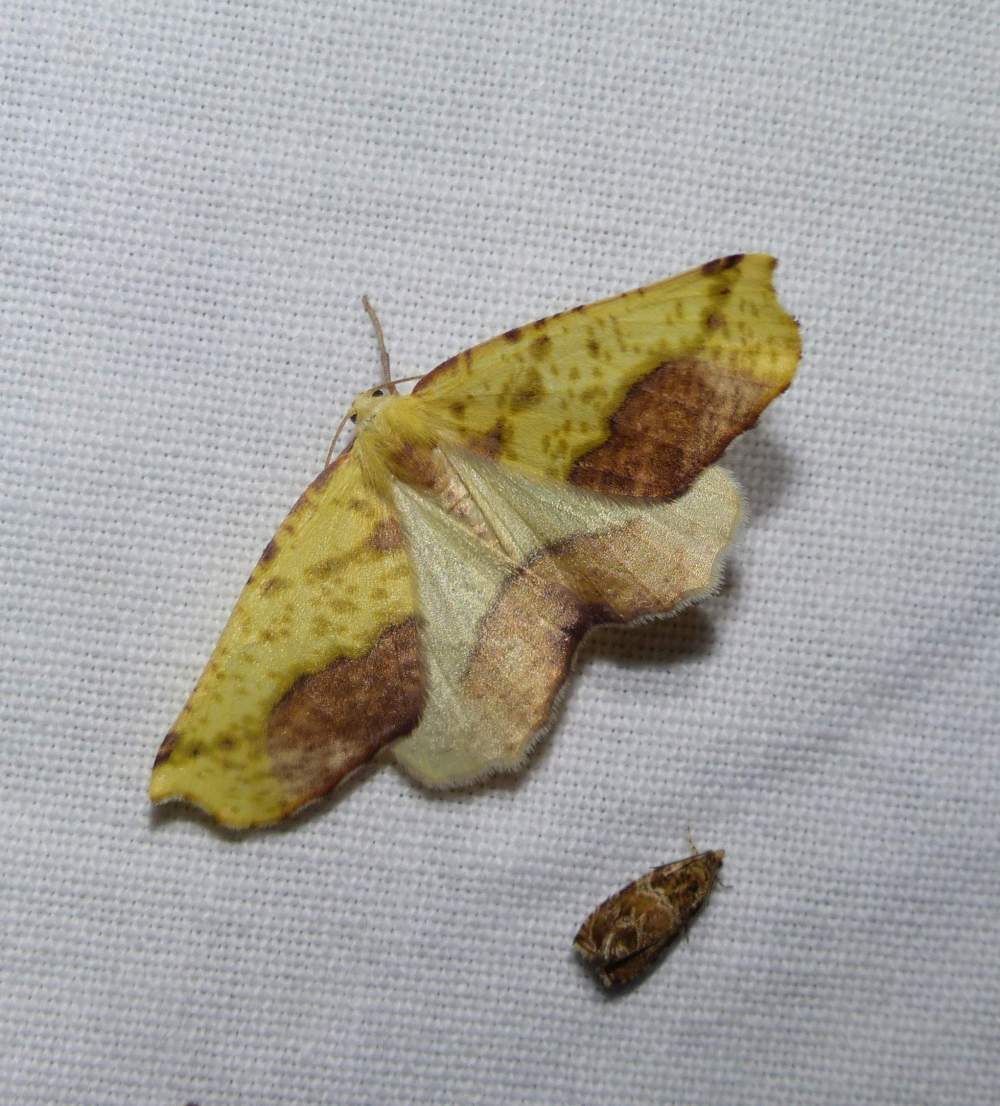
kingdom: Animalia
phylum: Arthropoda
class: Insecta
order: Lepidoptera
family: Geometridae
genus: Sicya
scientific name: Sicya macularia
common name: Sharp-lined yellow
